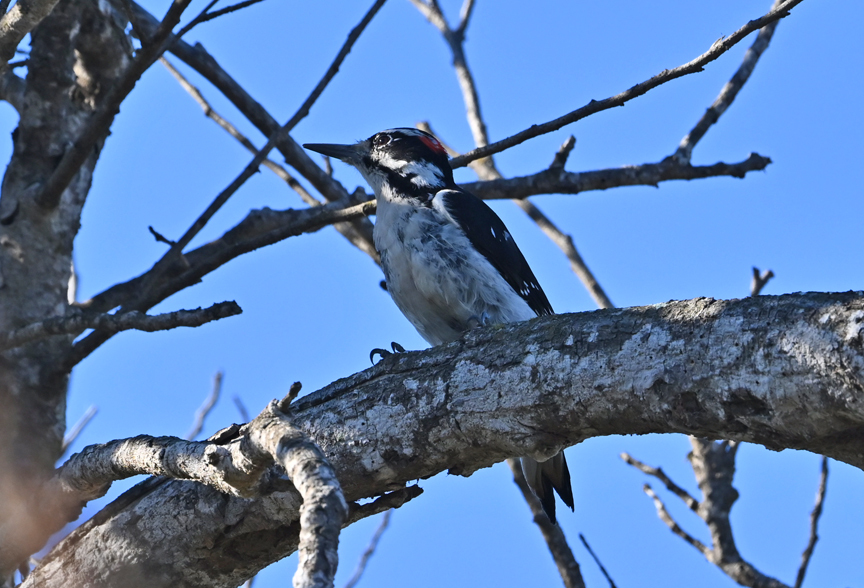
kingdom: Animalia
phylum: Chordata
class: Aves
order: Piciformes
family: Picidae
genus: Leuconotopicus
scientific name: Leuconotopicus villosus
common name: Hairy woodpecker
